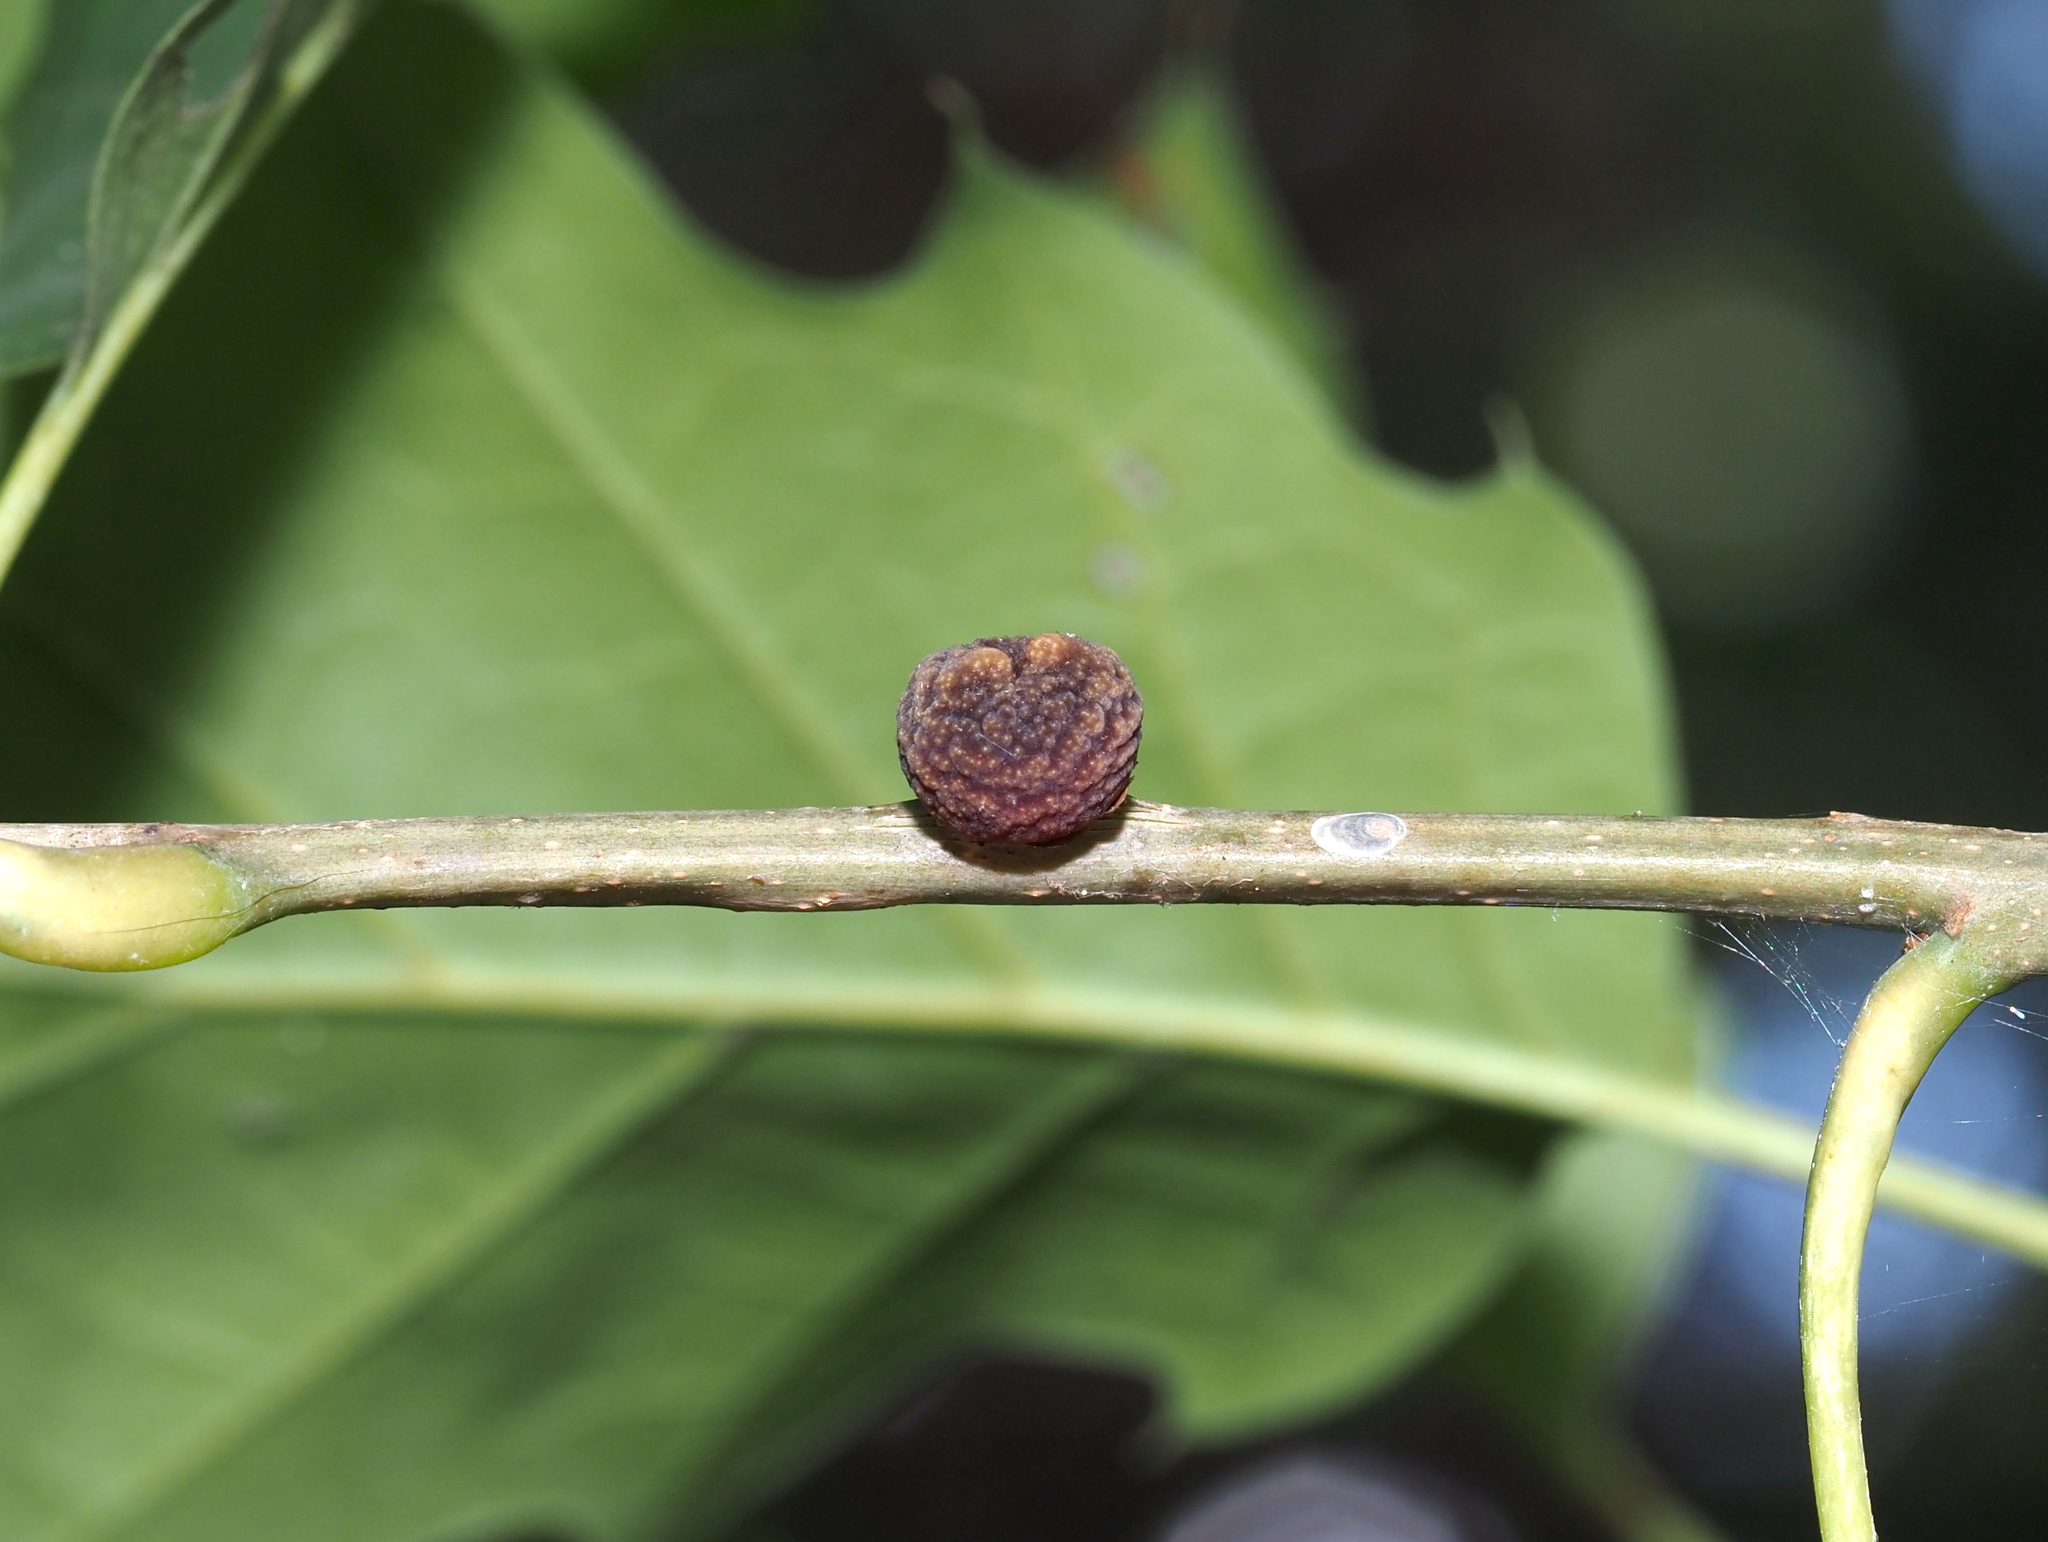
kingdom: Animalia
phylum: Arthropoda
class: Insecta
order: Hymenoptera
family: Cynipidae
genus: Kokkocynips
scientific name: Kokkocynips imbricariae
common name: Banded bullet gall wasp
